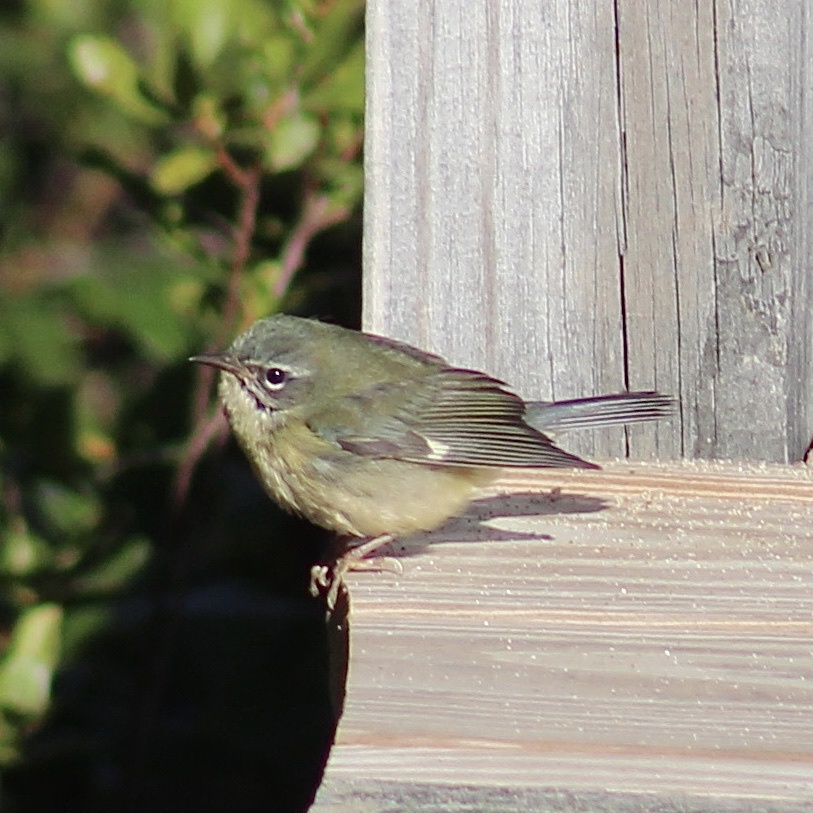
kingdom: Animalia
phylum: Chordata
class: Aves
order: Passeriformes
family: Parulidae
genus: Setophaga
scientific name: Setophaga caerulescens
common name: Black-throated blue warbler
